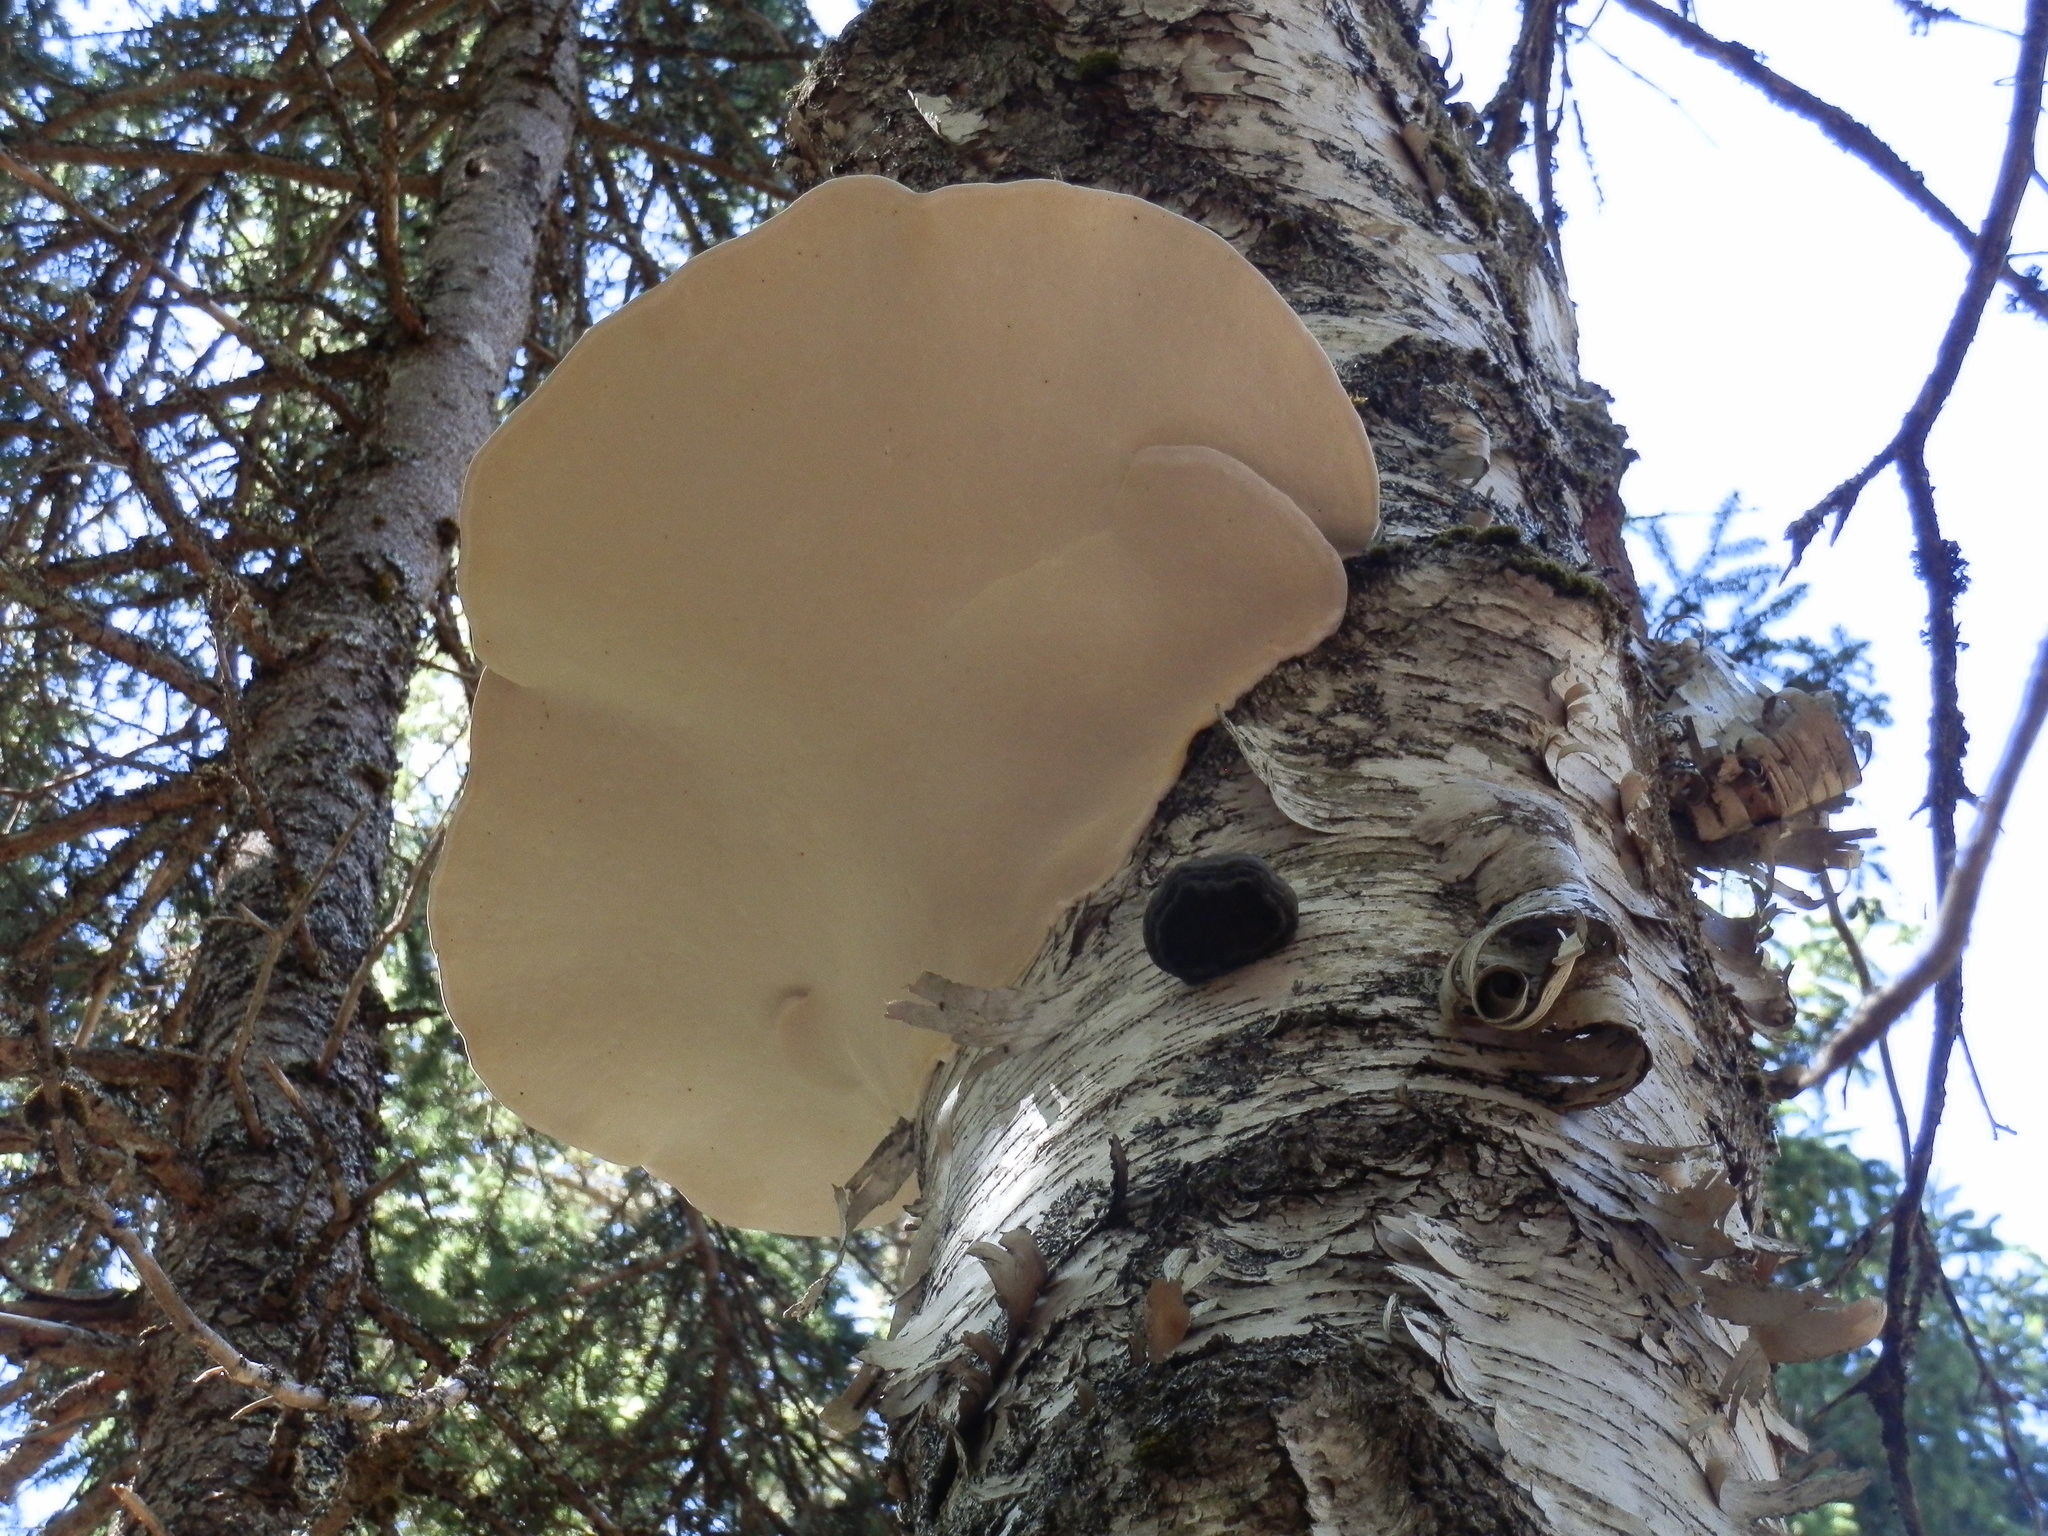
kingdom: Fungi
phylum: Basidiomycota
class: Agaricomycetes
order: Polyporales
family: Polyporaceae
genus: Ganoderma
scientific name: Ganoderma applanatum
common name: Artist's bracket
